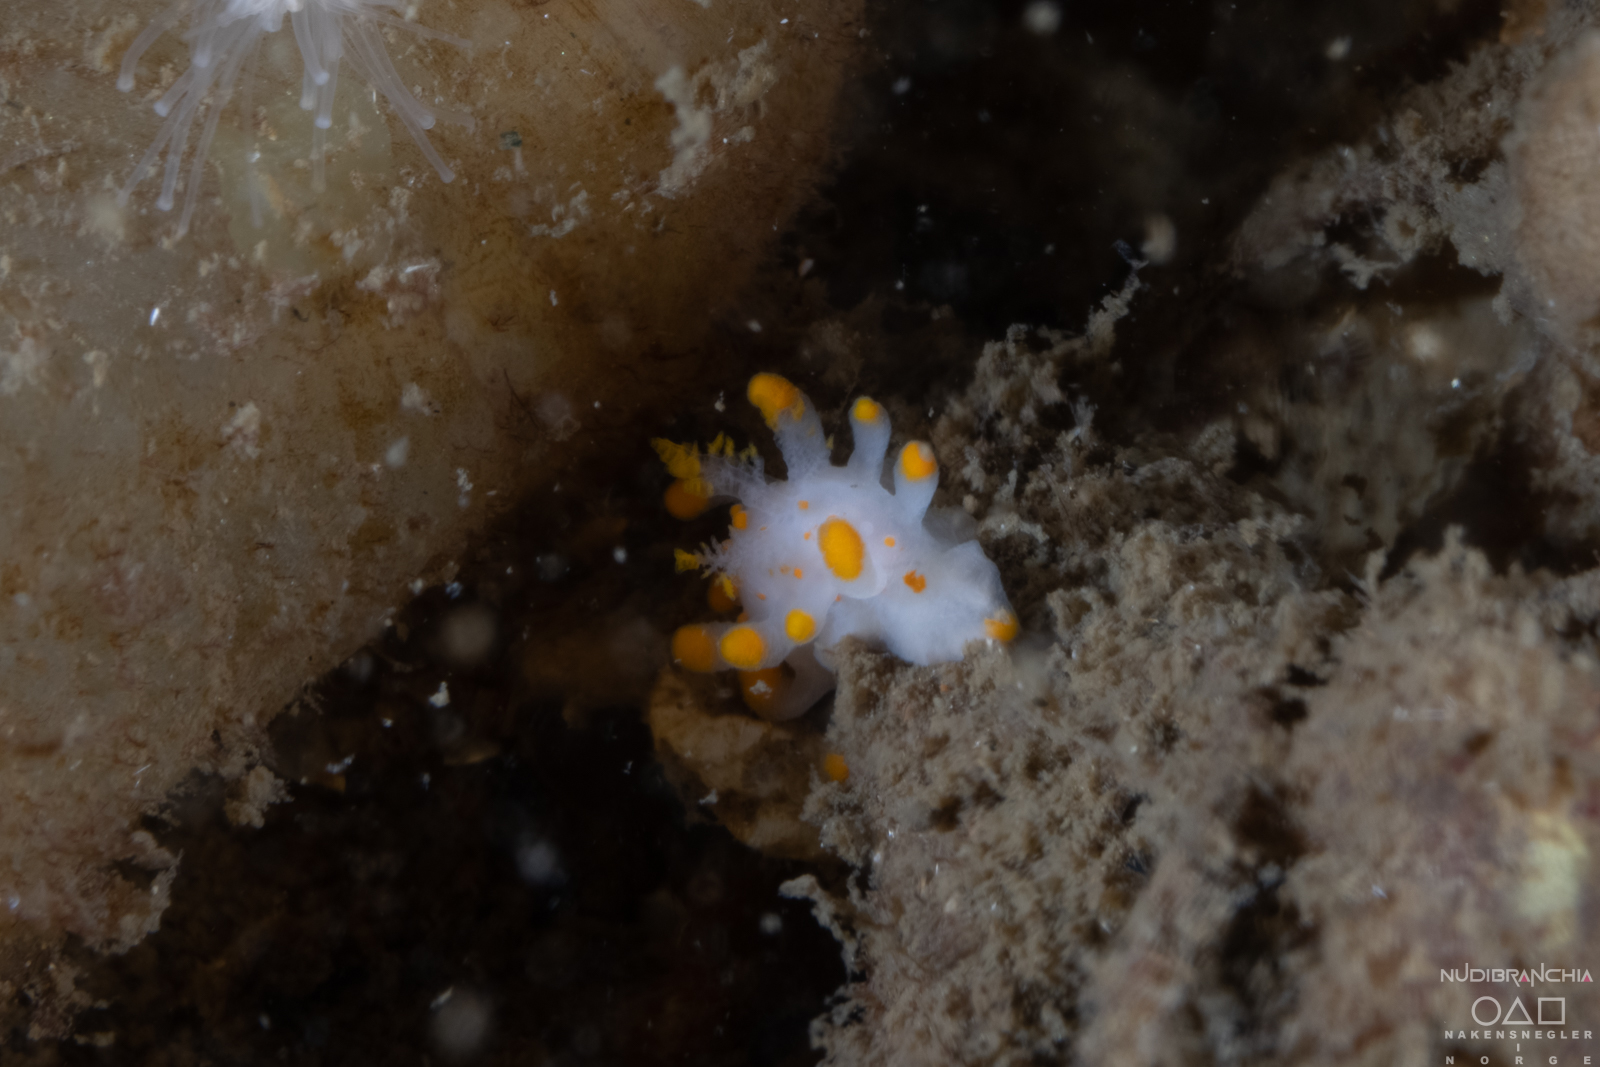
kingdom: Animalia
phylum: Mollusca
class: Gastropoda
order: Nudibranchia
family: Polyceridae
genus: Limacia
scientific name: Limacia clavigera
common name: Orange-clubbed sea slug
